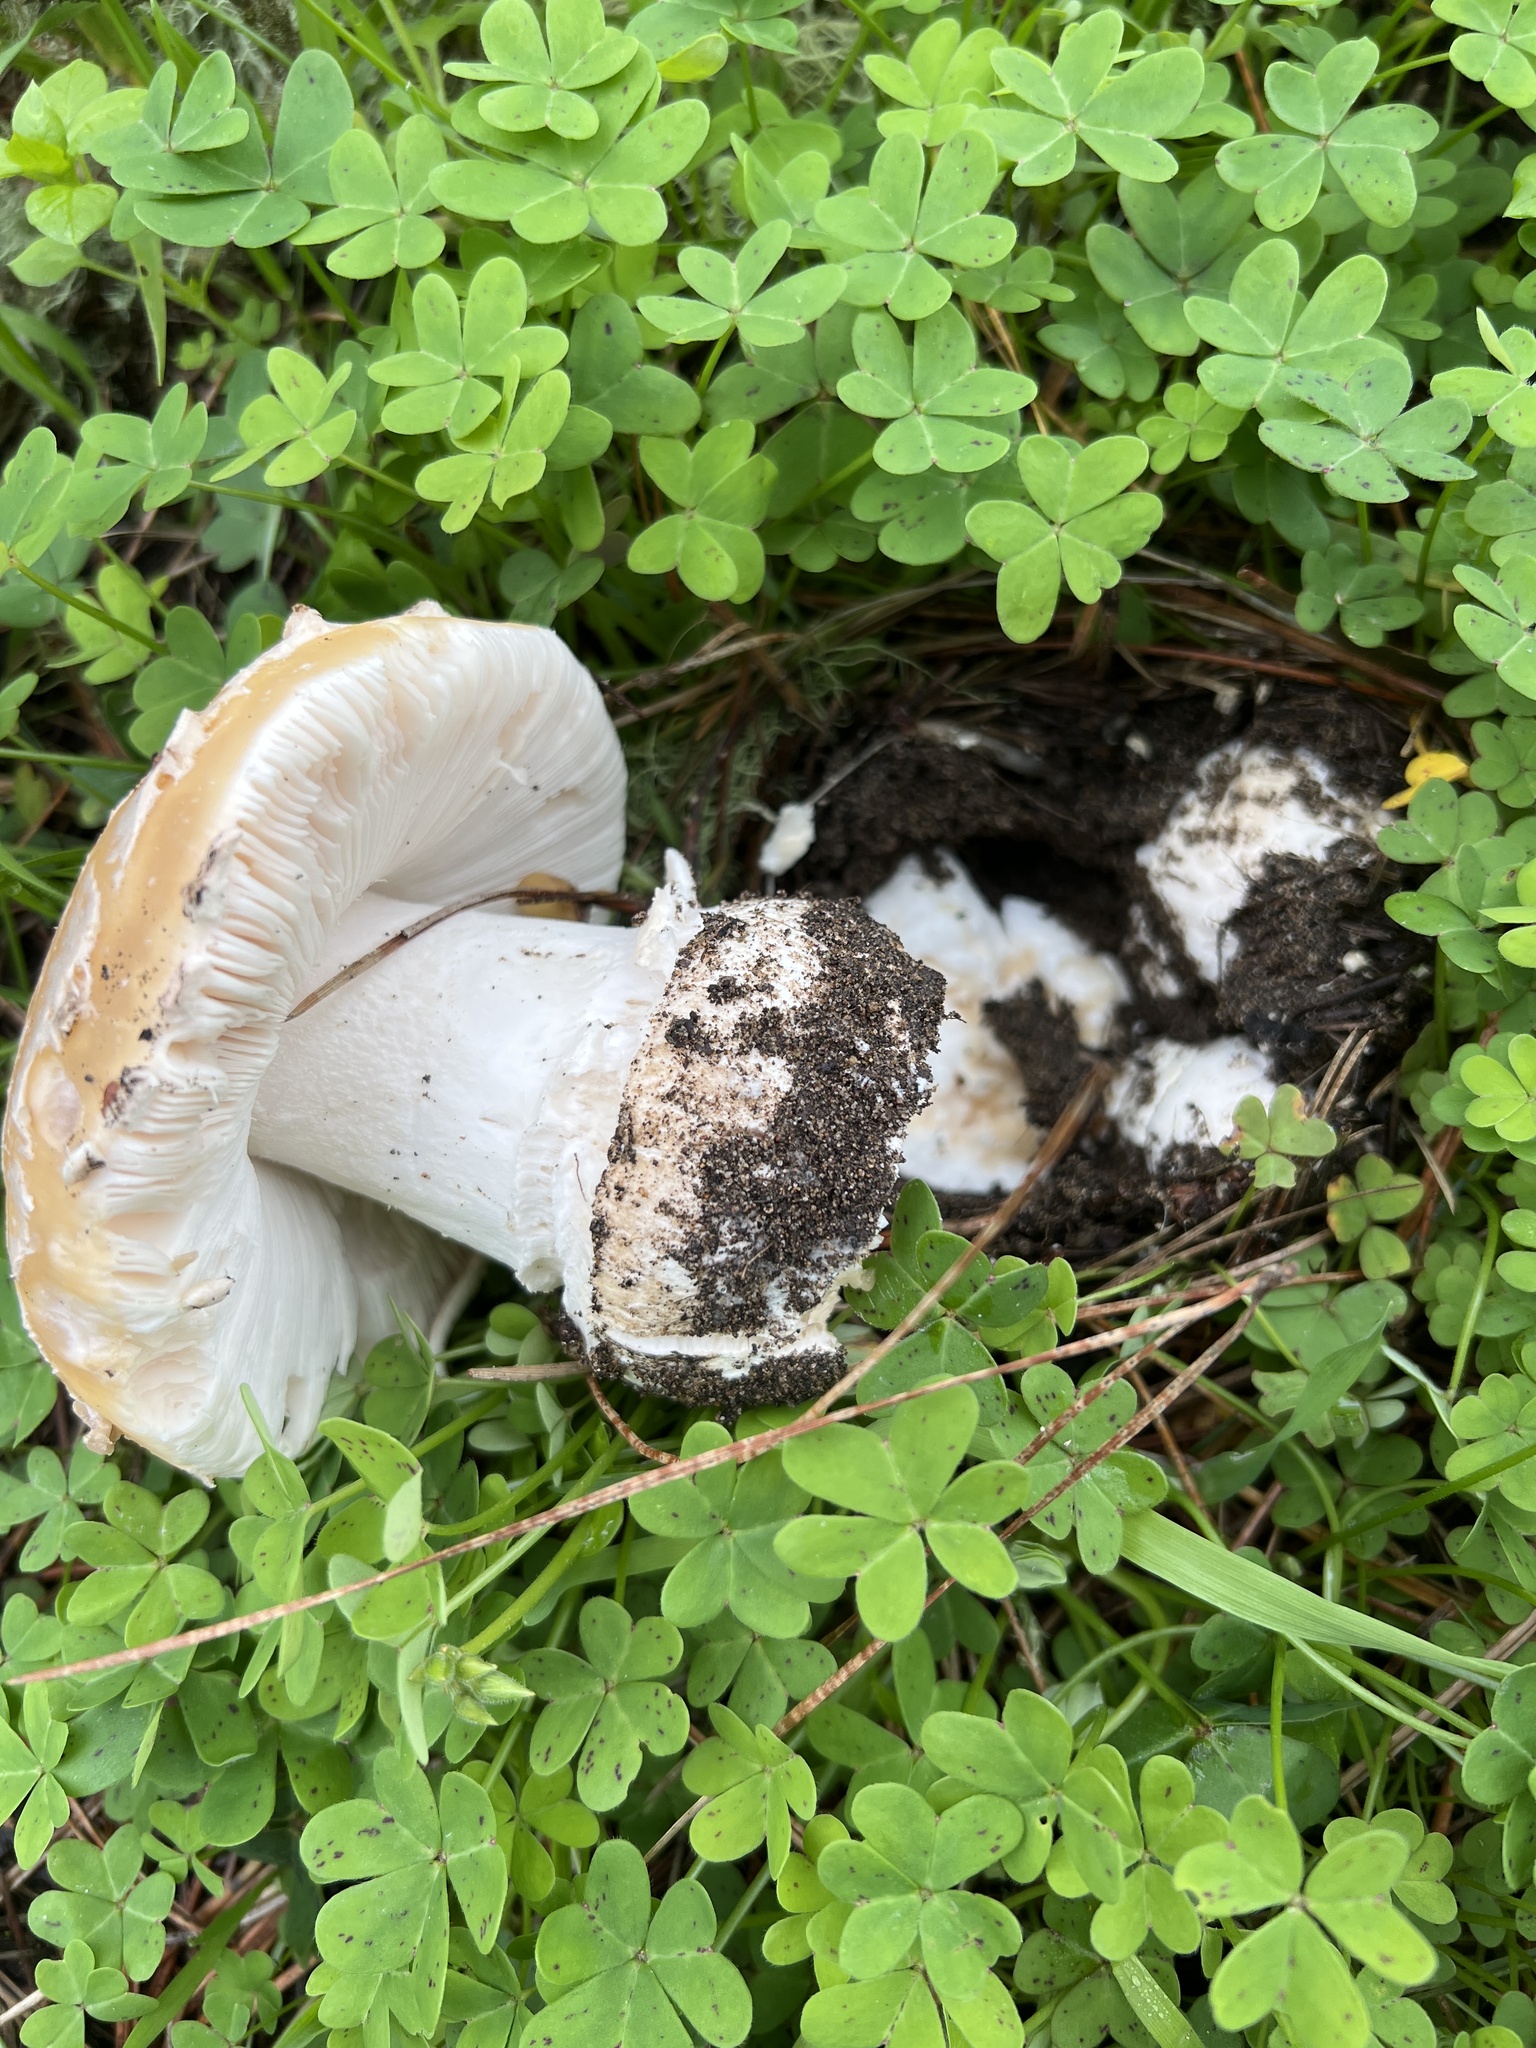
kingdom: Fungi
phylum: Basidiomycota
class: Agaricomycetes
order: Agaricales
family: Amanitaceae
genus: Amanita
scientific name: Amanita pantherinoides
